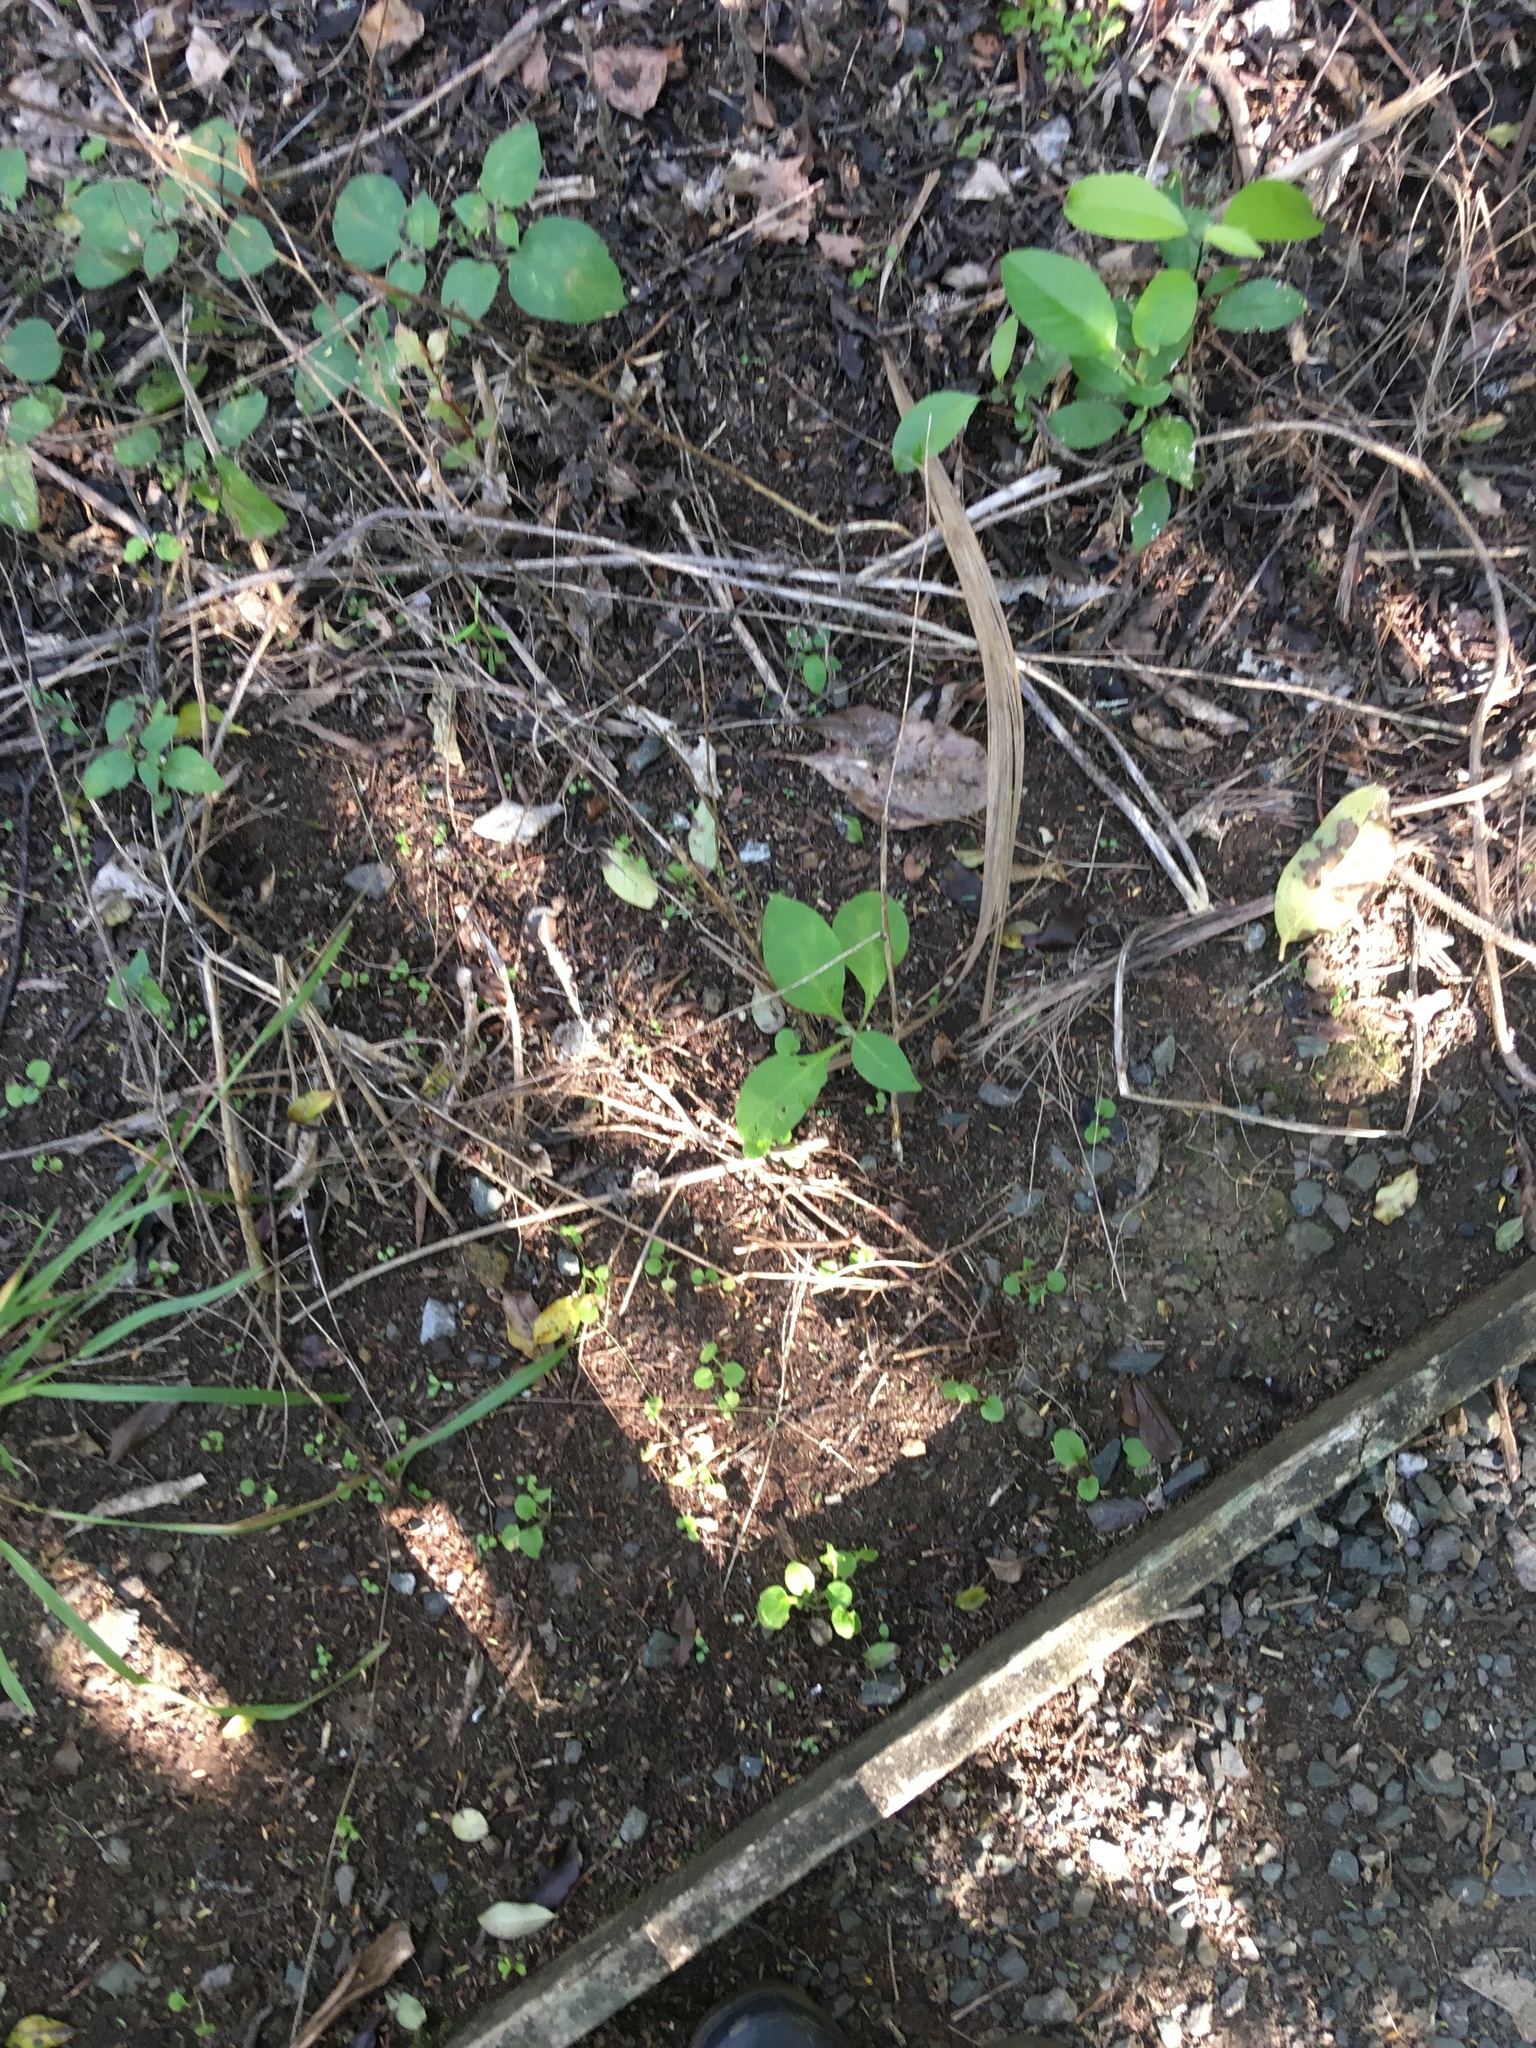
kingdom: Plantae
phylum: Tracheophyta
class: Magnoliopsida
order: Solanales
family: Solanaceae
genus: Solanum
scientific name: Solanum mauritianum
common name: Earleaf nightshade
